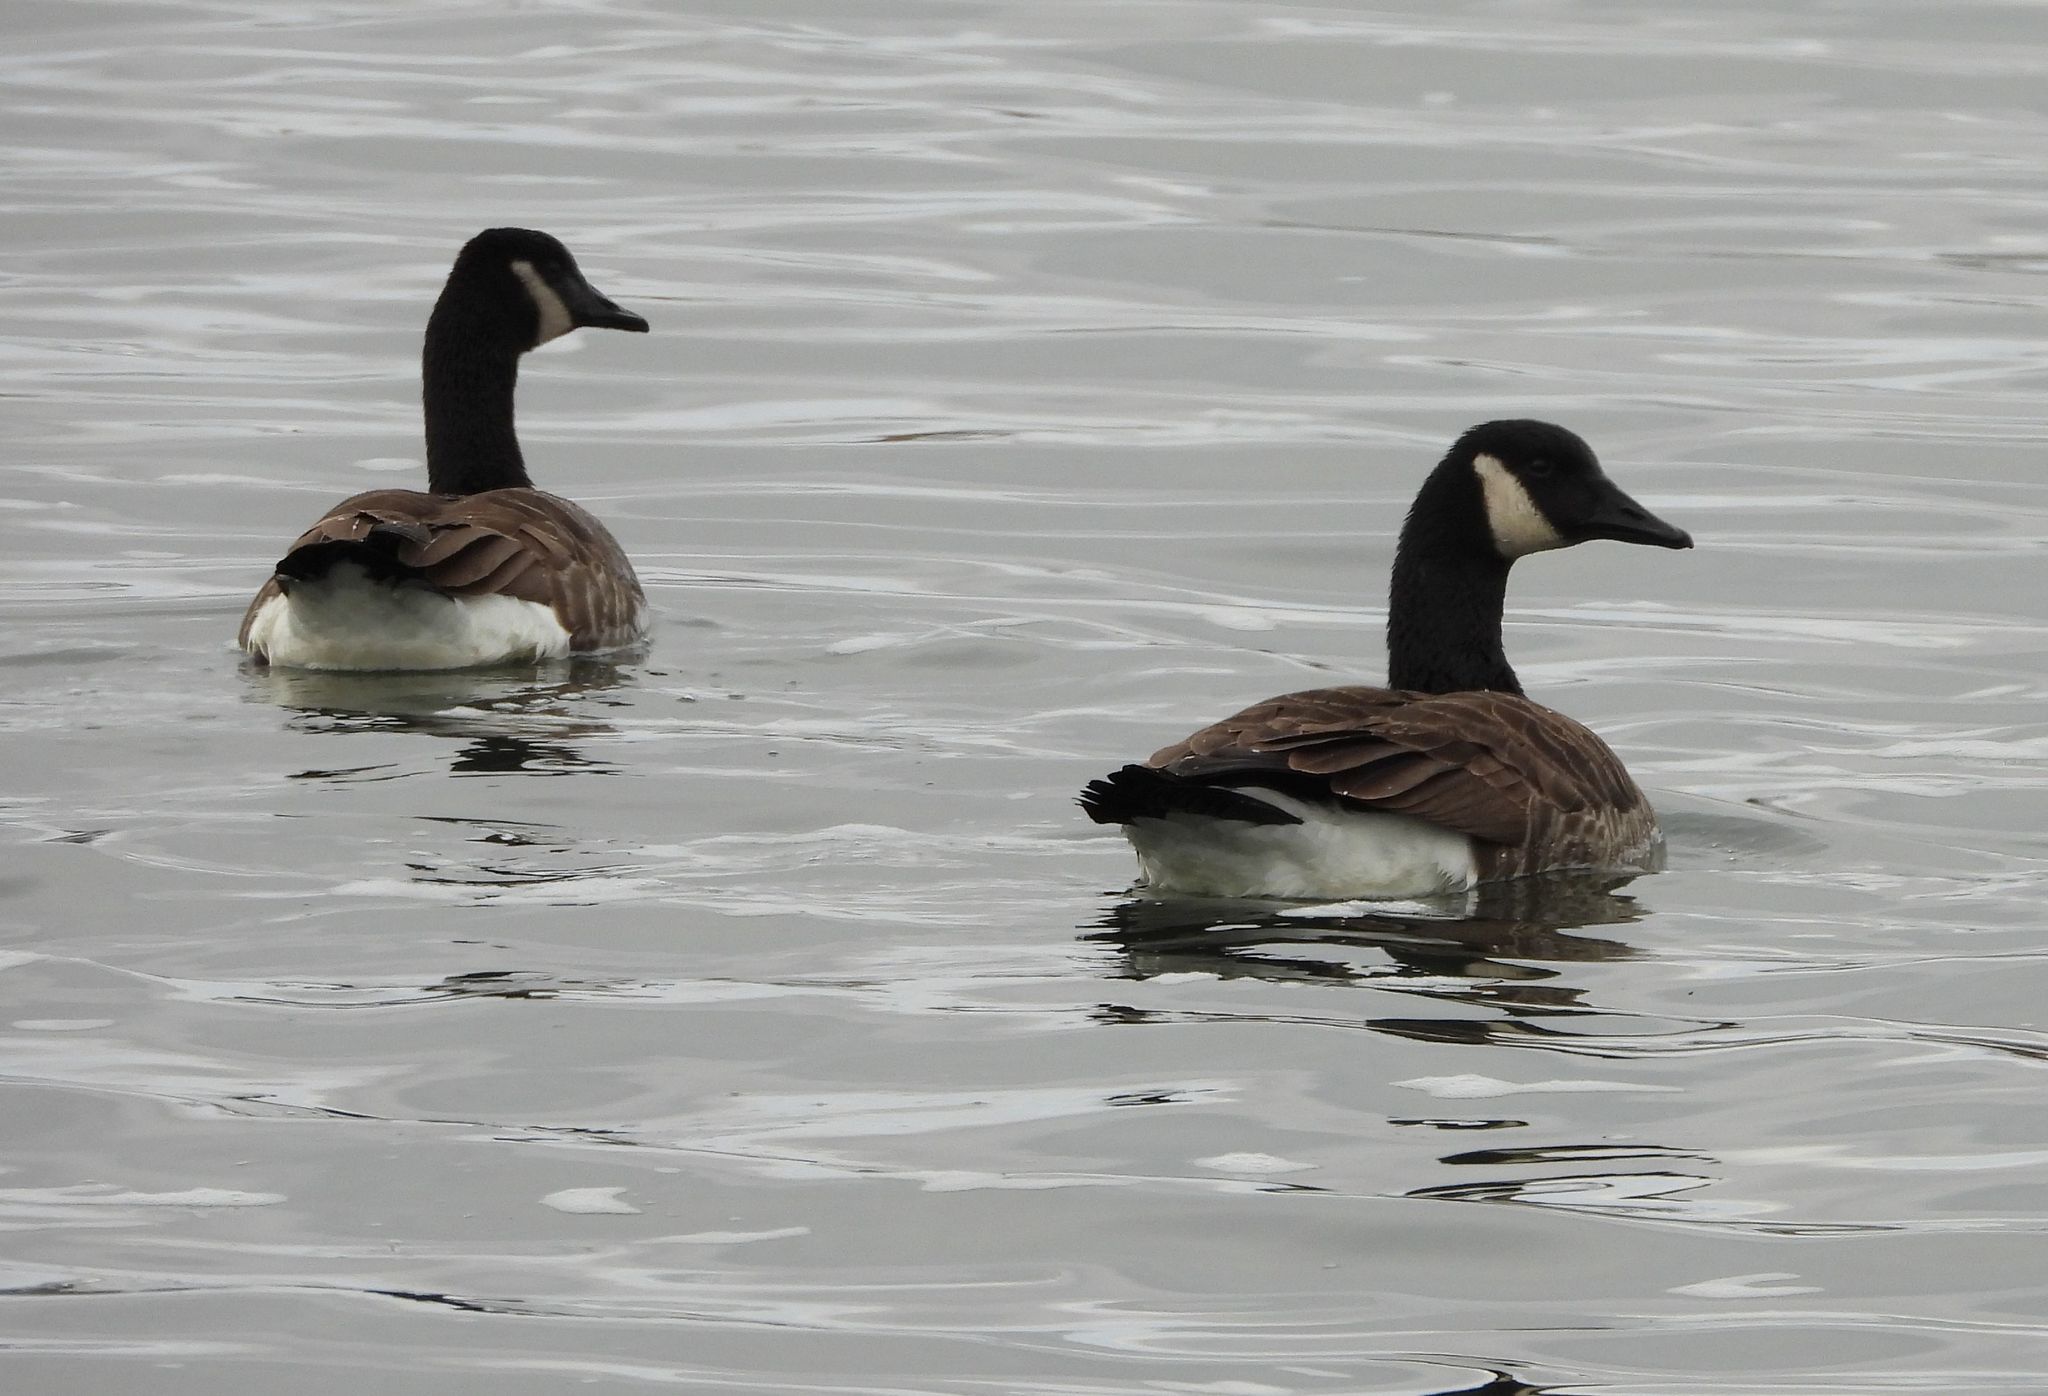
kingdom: Animalia
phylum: Chordata
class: Aves
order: Anseriformes
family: Anatidae
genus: Branta
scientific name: Branta canadensis
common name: Canada goose
